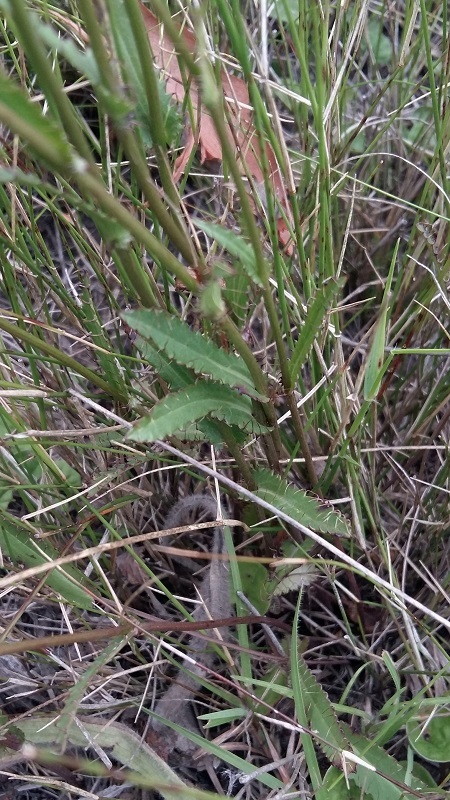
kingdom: Plantae
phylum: Tracheophyta
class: Magnoliopsida
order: Apiales
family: Apiaceae
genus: Alepidea
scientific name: Alepidea capensis
